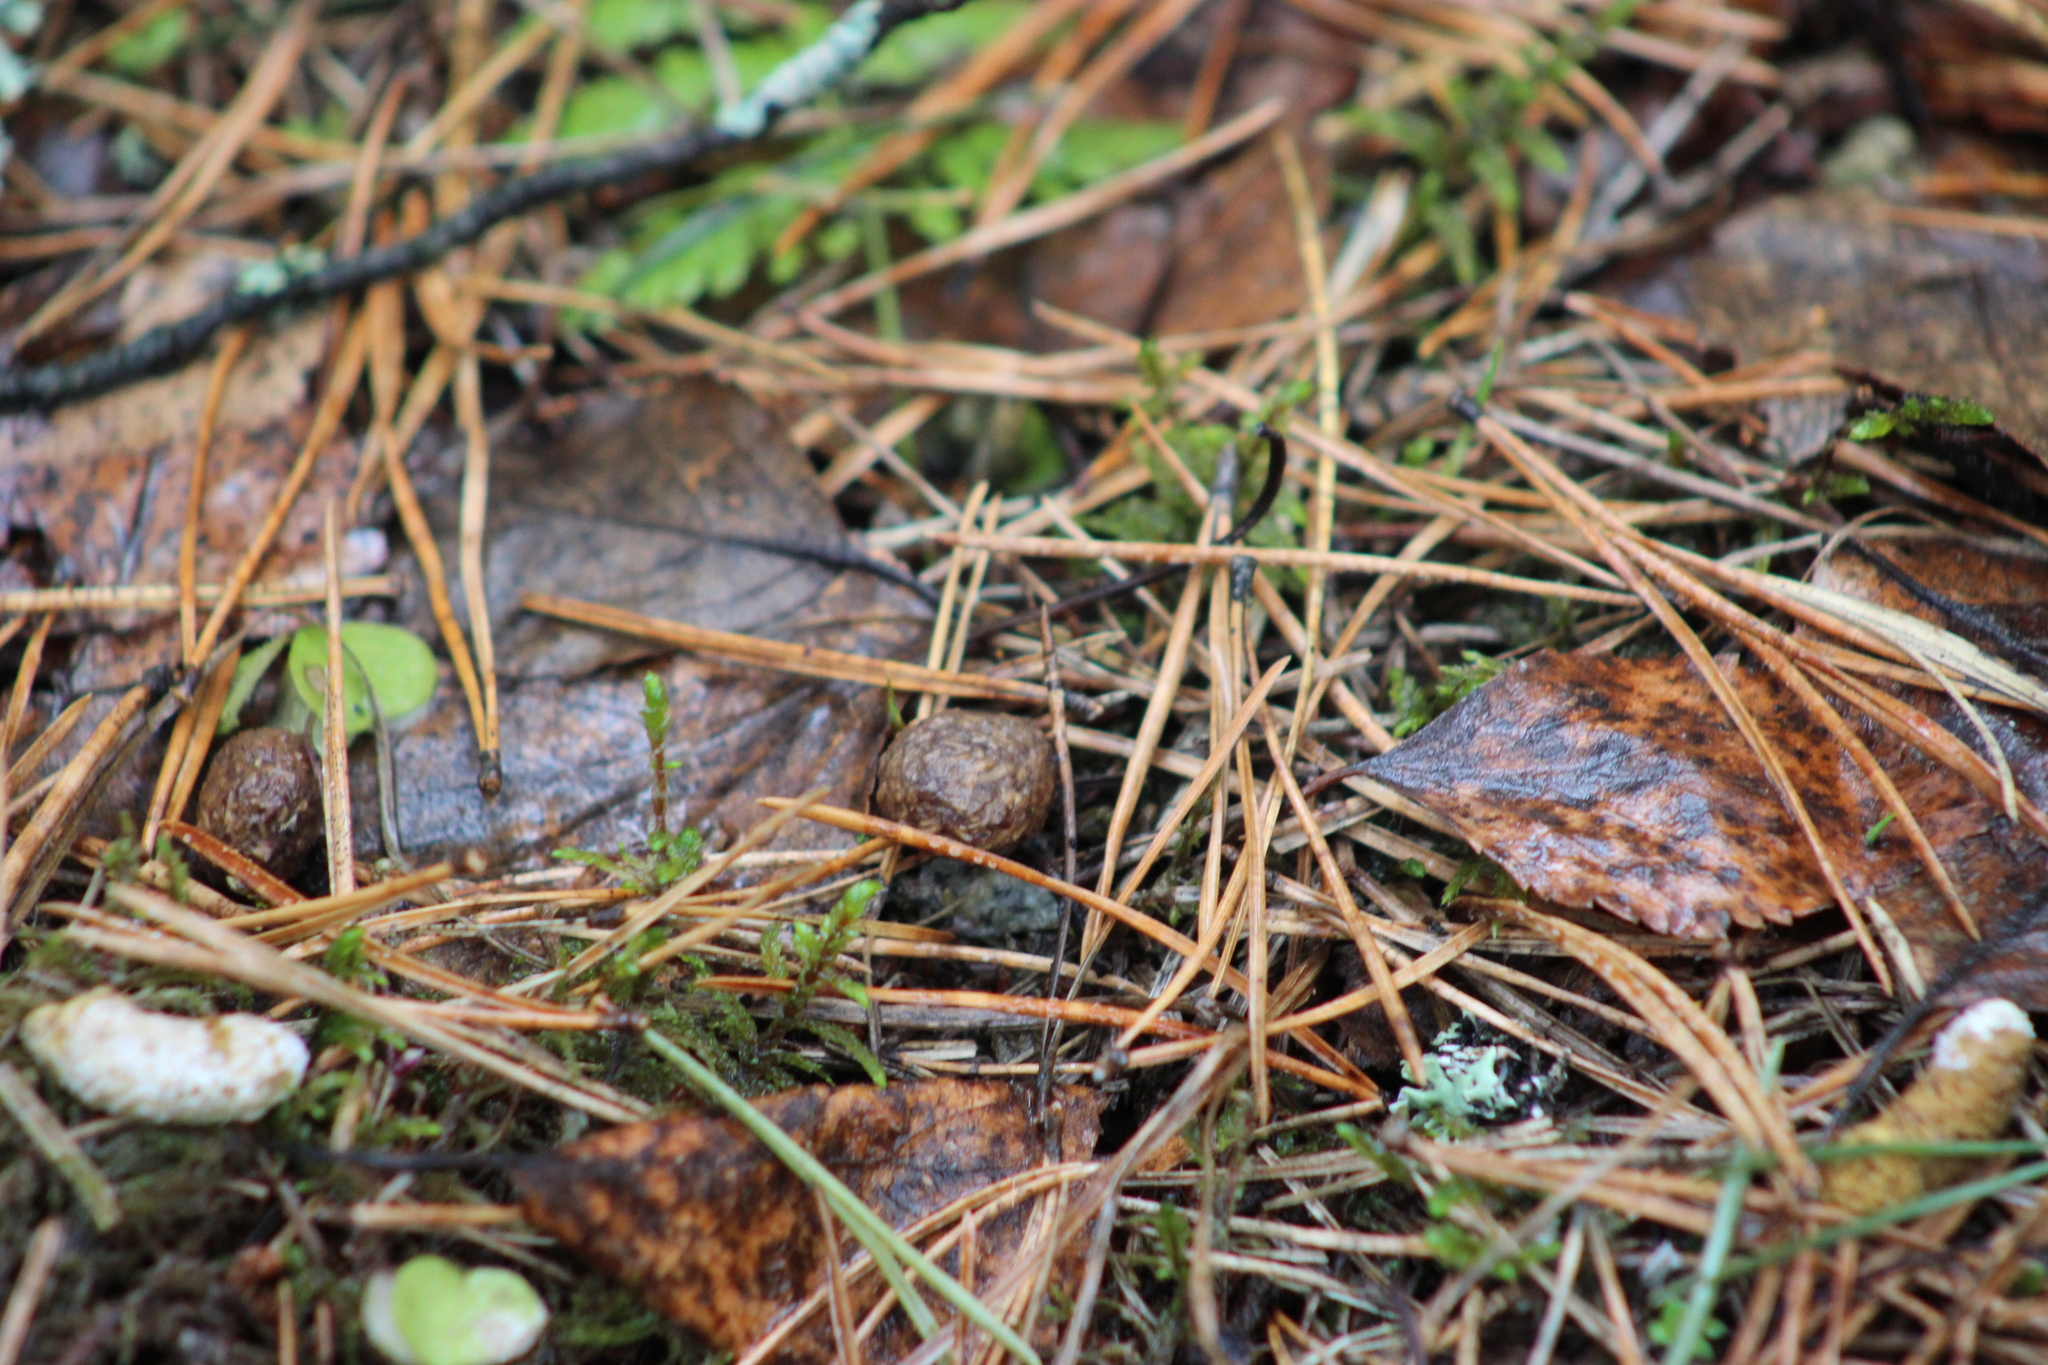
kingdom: Animalia
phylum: Chordata
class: Mammalia
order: Lagomorpha
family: Leporidae
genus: Lepus
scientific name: Lepus timidus
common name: Mountain hare
